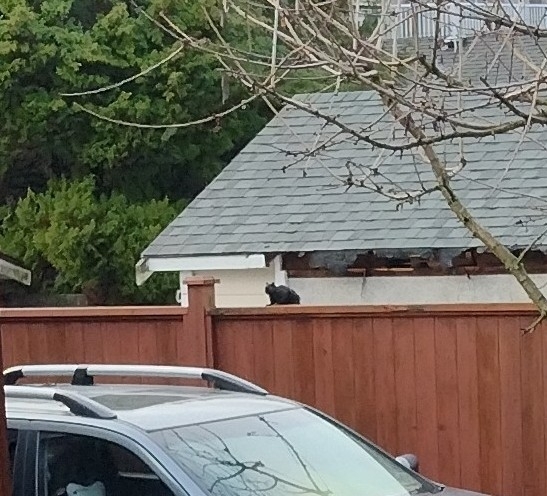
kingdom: Animalia
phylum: Chordata
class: Mammalia
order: Rodentia
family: Sciuridae
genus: Sciurus
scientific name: Sciurus carolinensis
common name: Eastern gray squirrel
